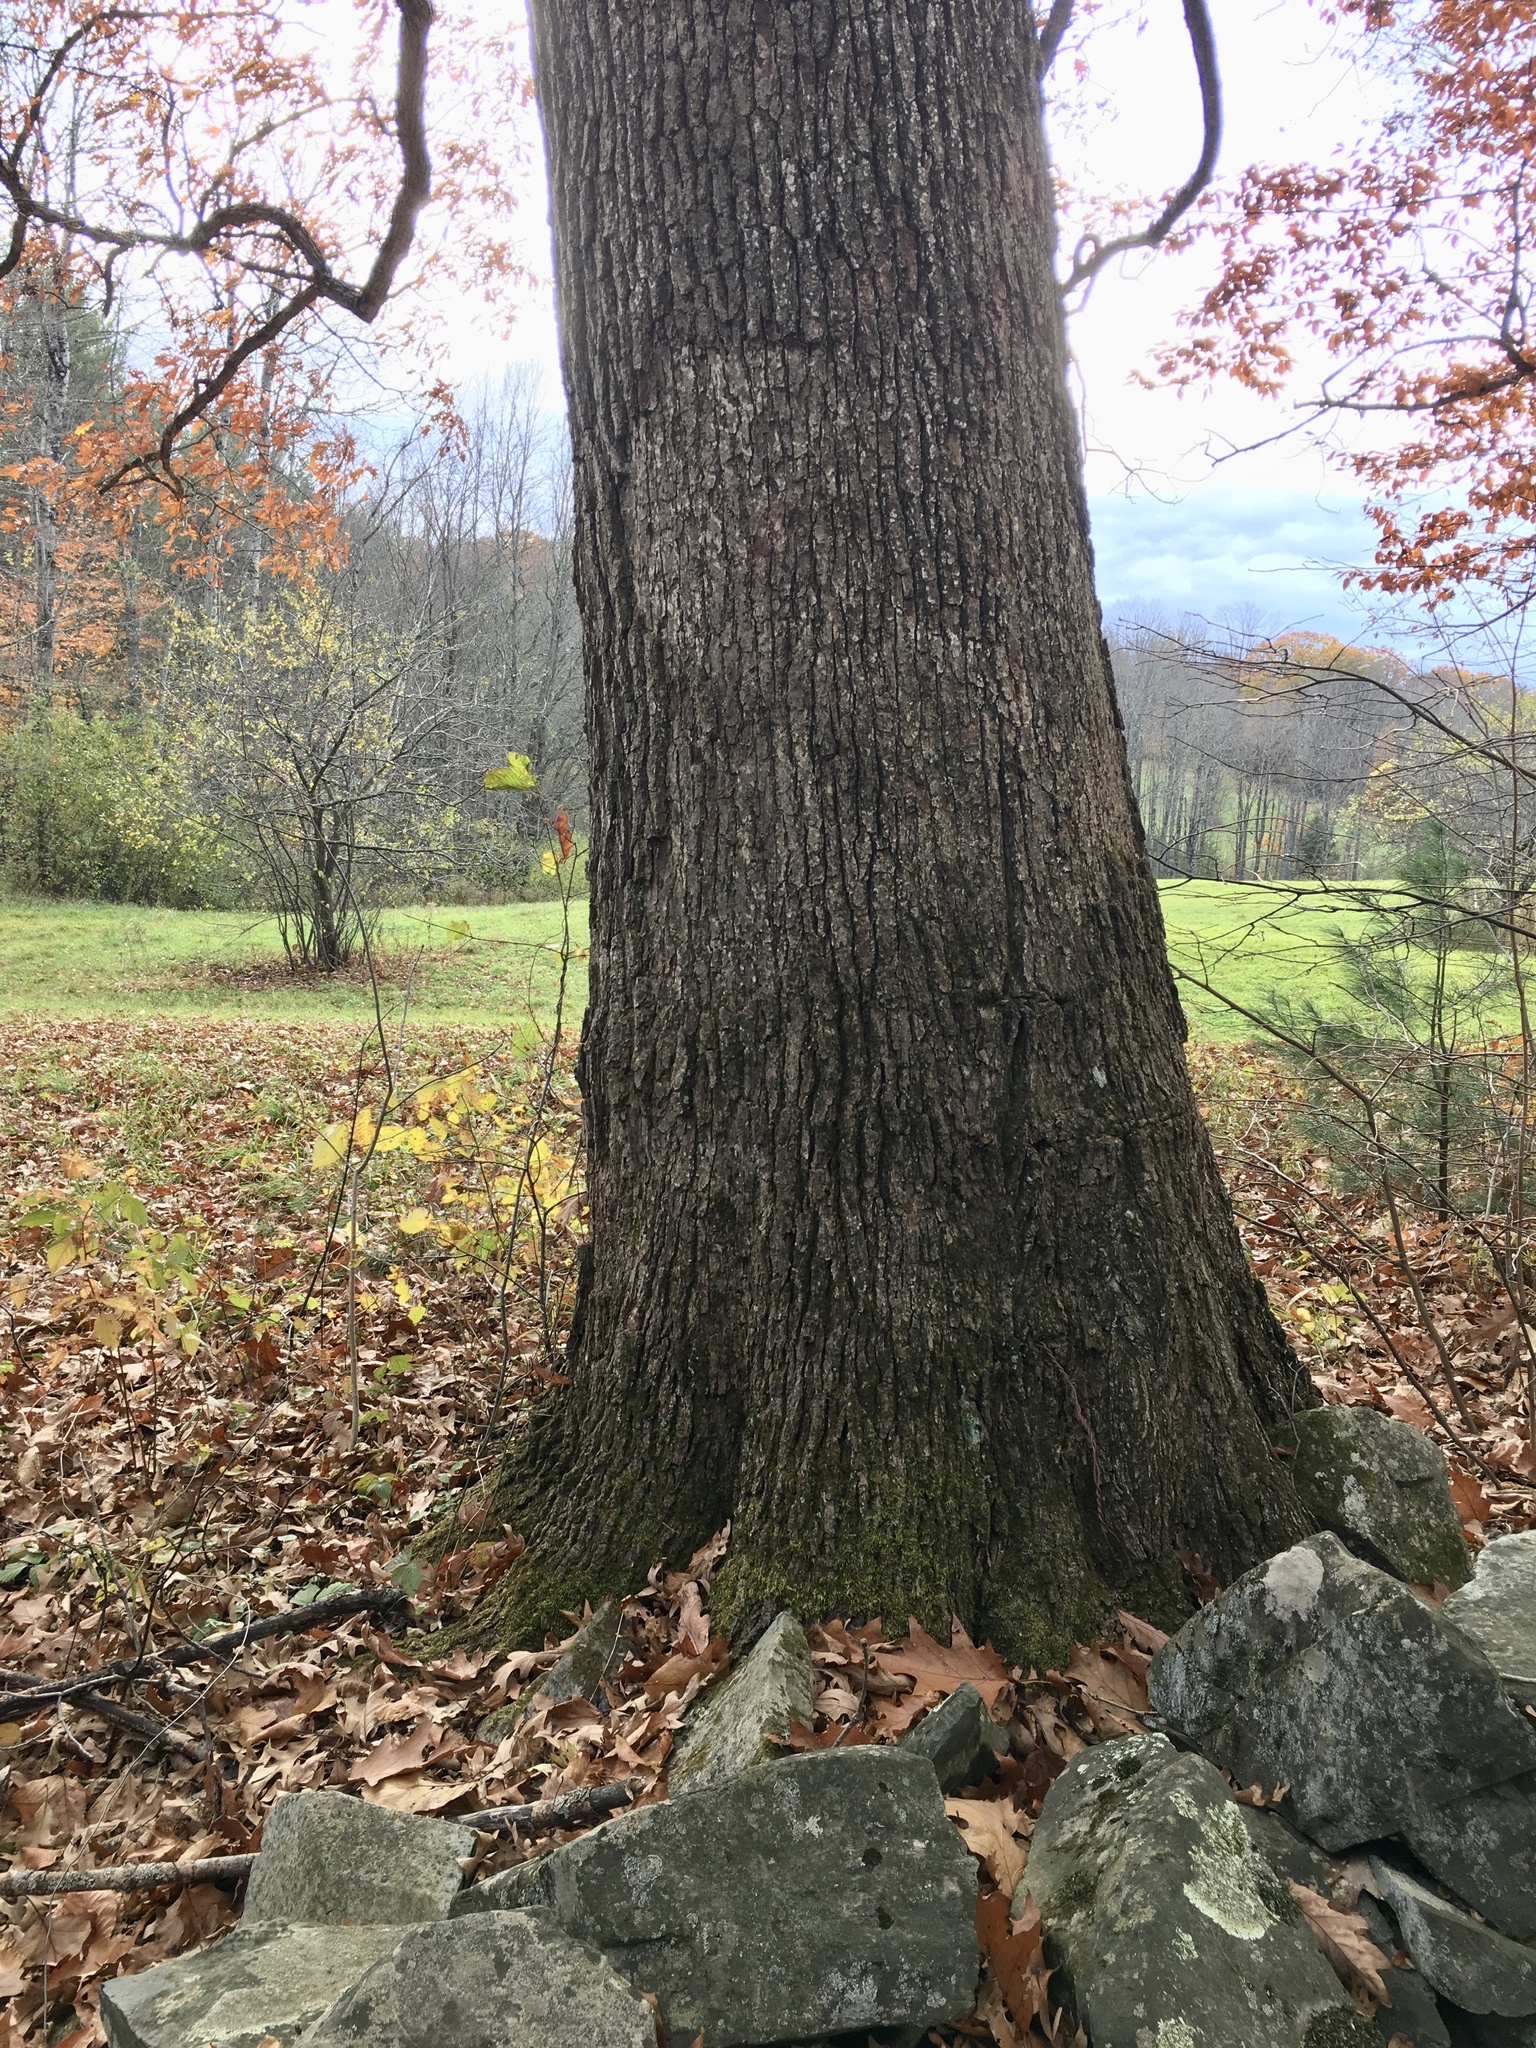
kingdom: Plantae
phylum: Tracheophyta
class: Magnoliopsida
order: Fagales
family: Fagaceae
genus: Quercus
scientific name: Quercus alba
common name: White oak
